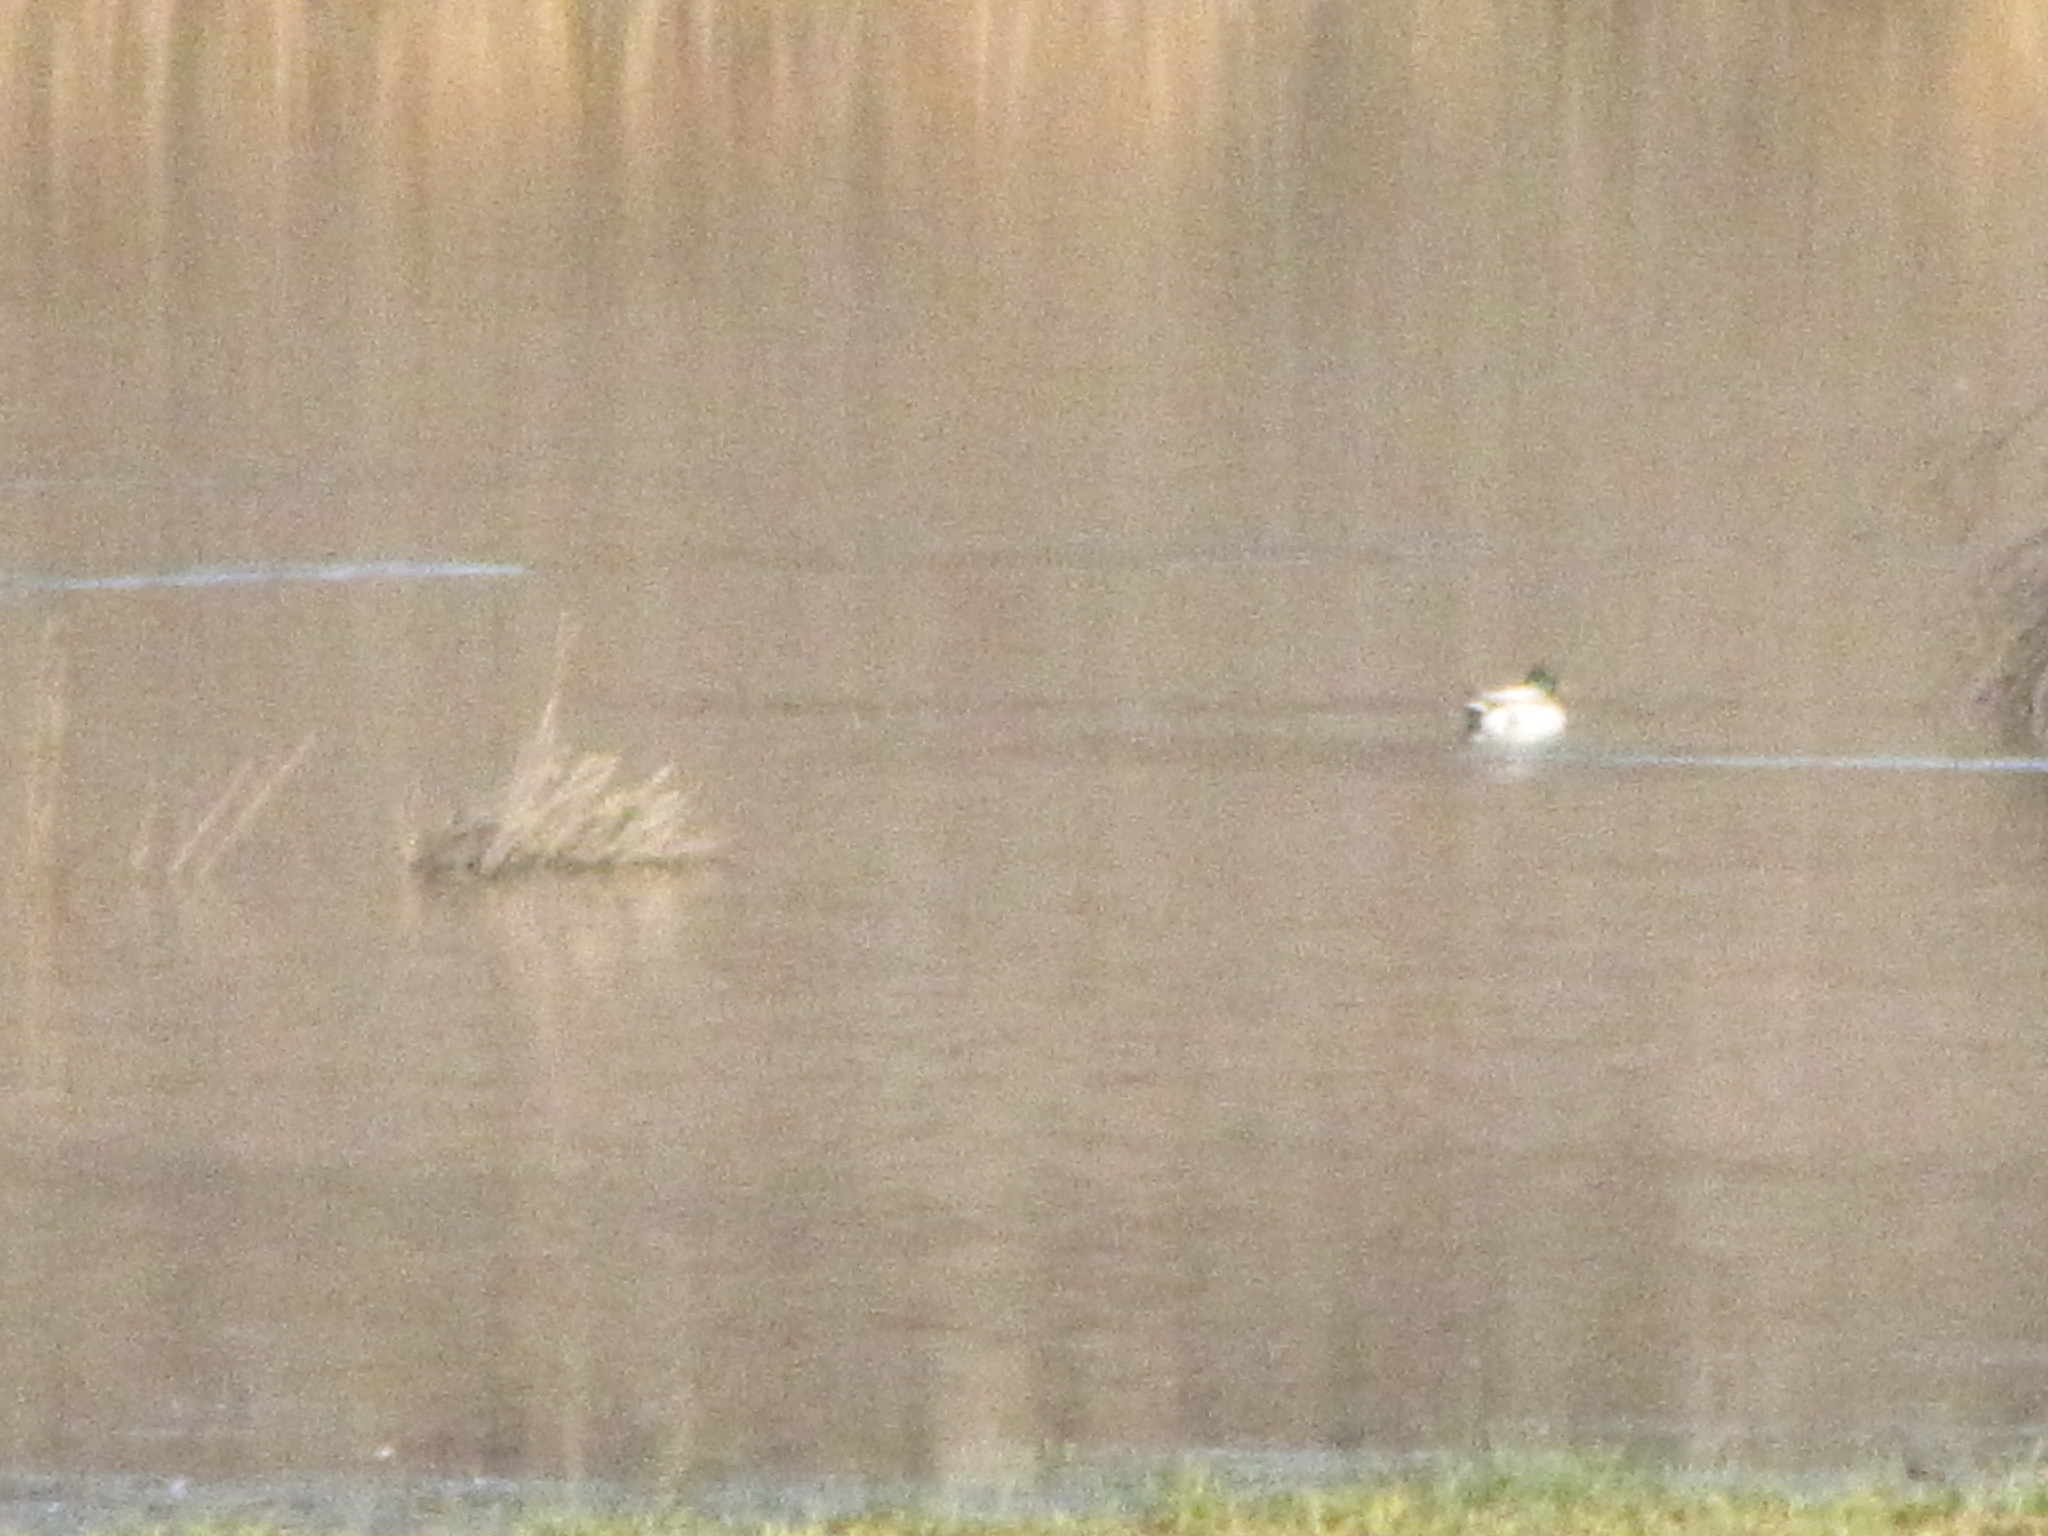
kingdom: Animalia
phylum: Chordata
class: Aves
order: Anseriformes
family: Anatidae
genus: Anas
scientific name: Anas platyrhynchos
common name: Mallard
